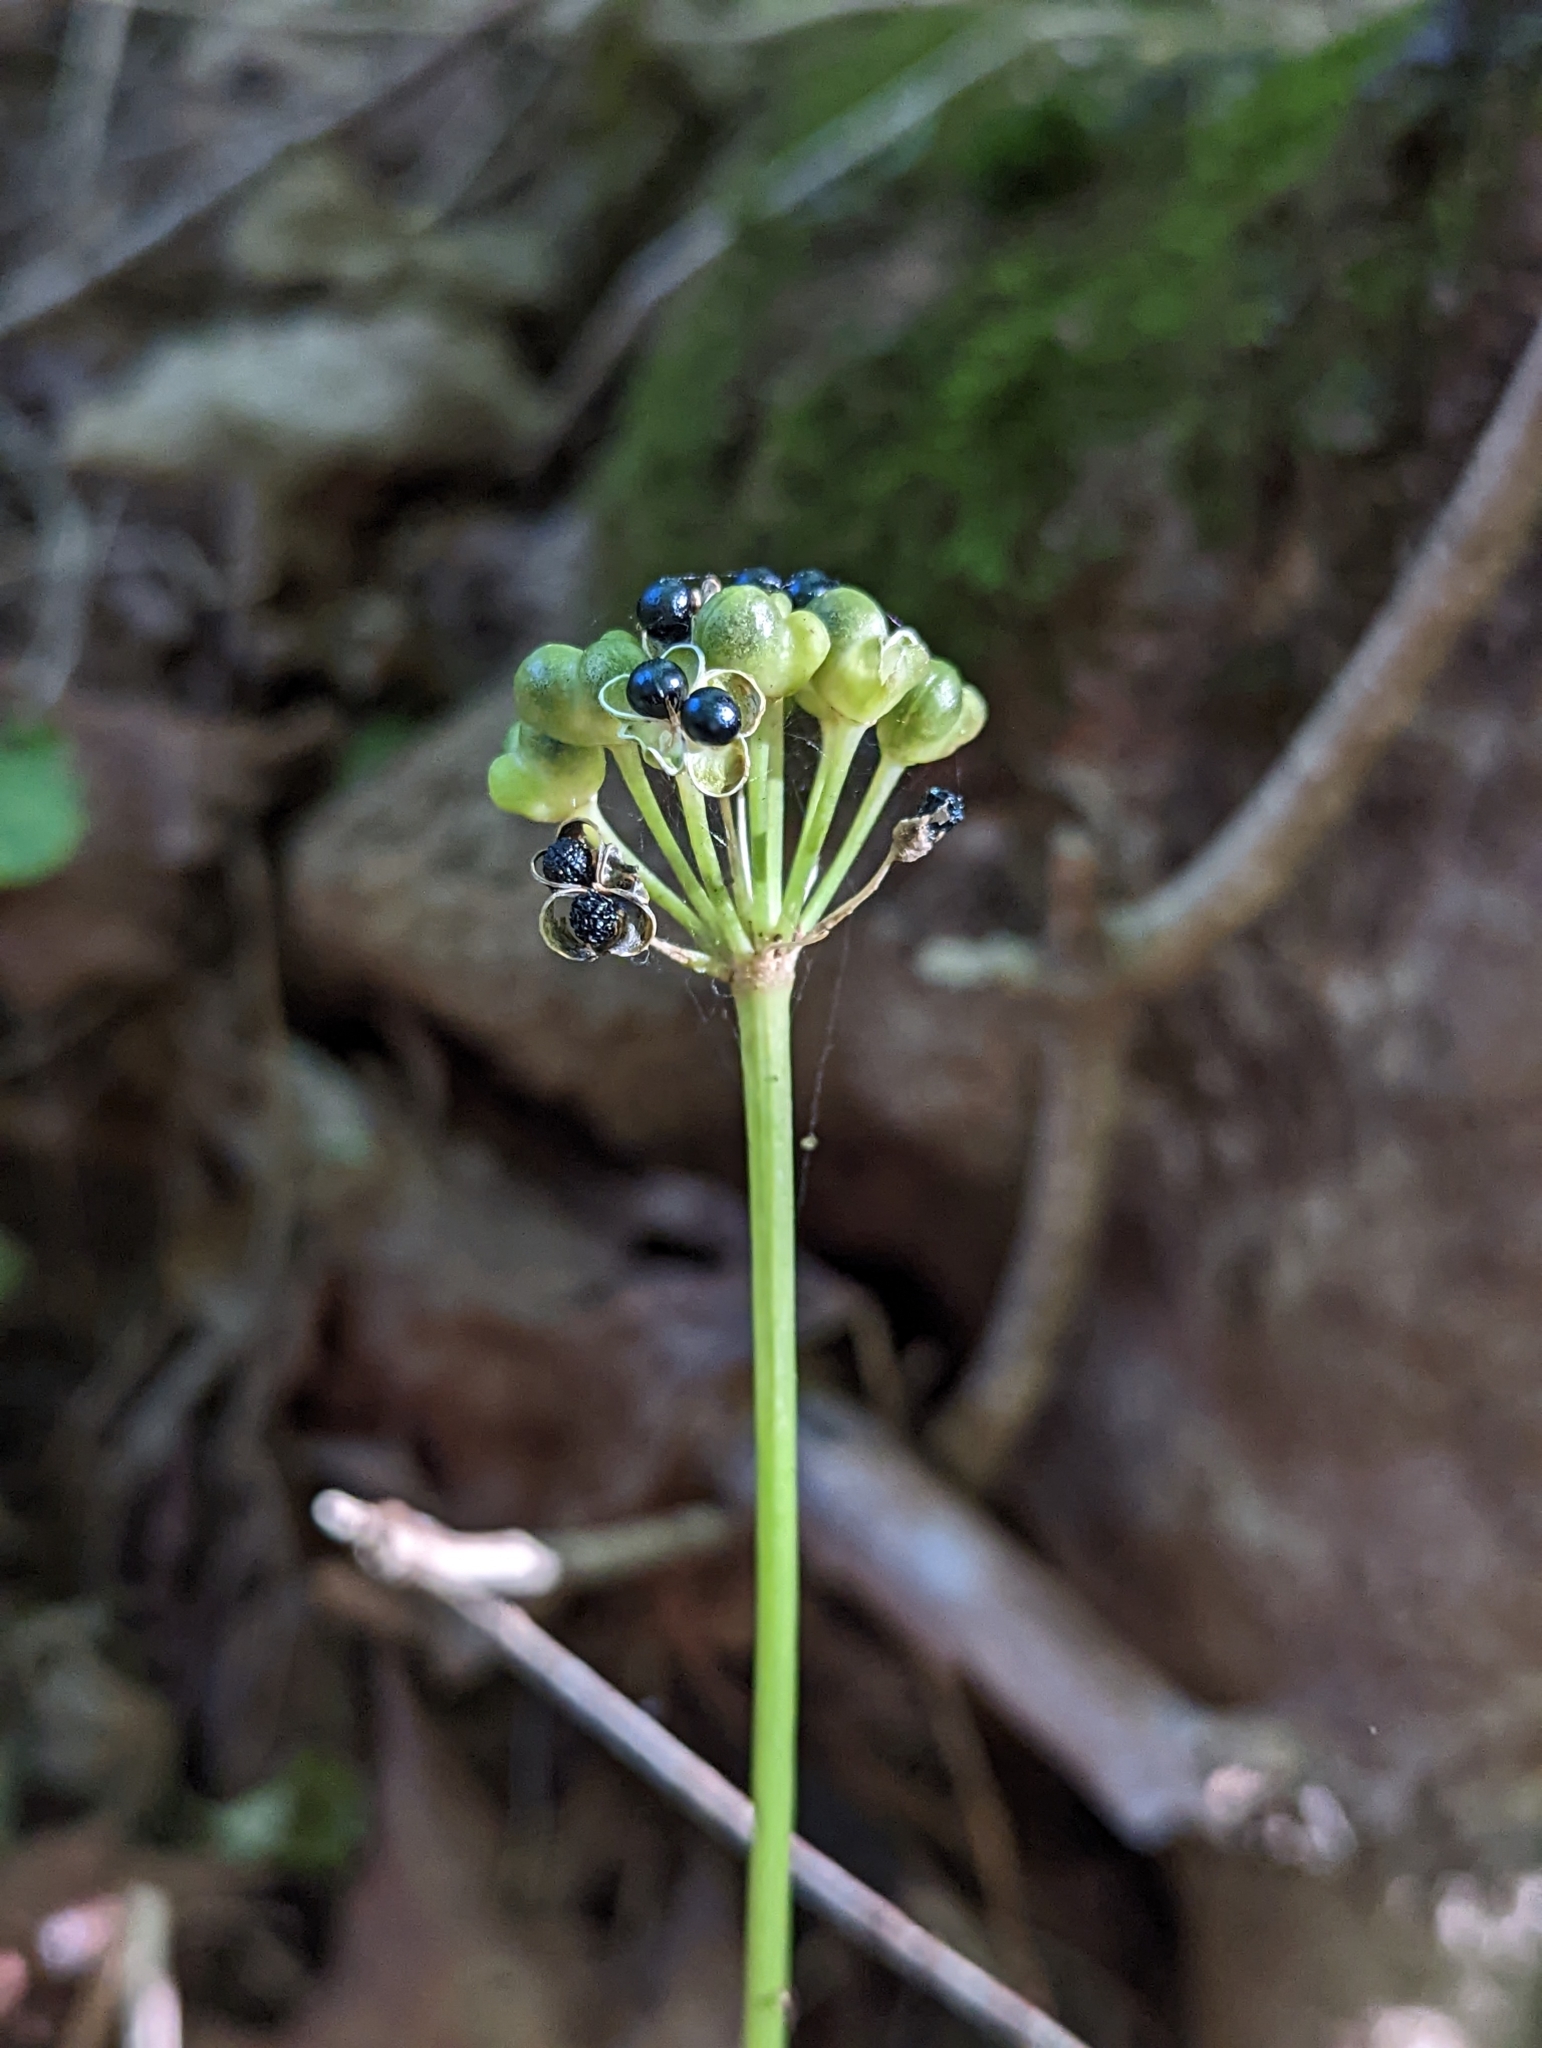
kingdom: Plantae
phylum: Tracheophyta
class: Liliopsida
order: Asparagales
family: Amaryllidaceae
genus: Allium
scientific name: Allium tricoccum
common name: Ramp
